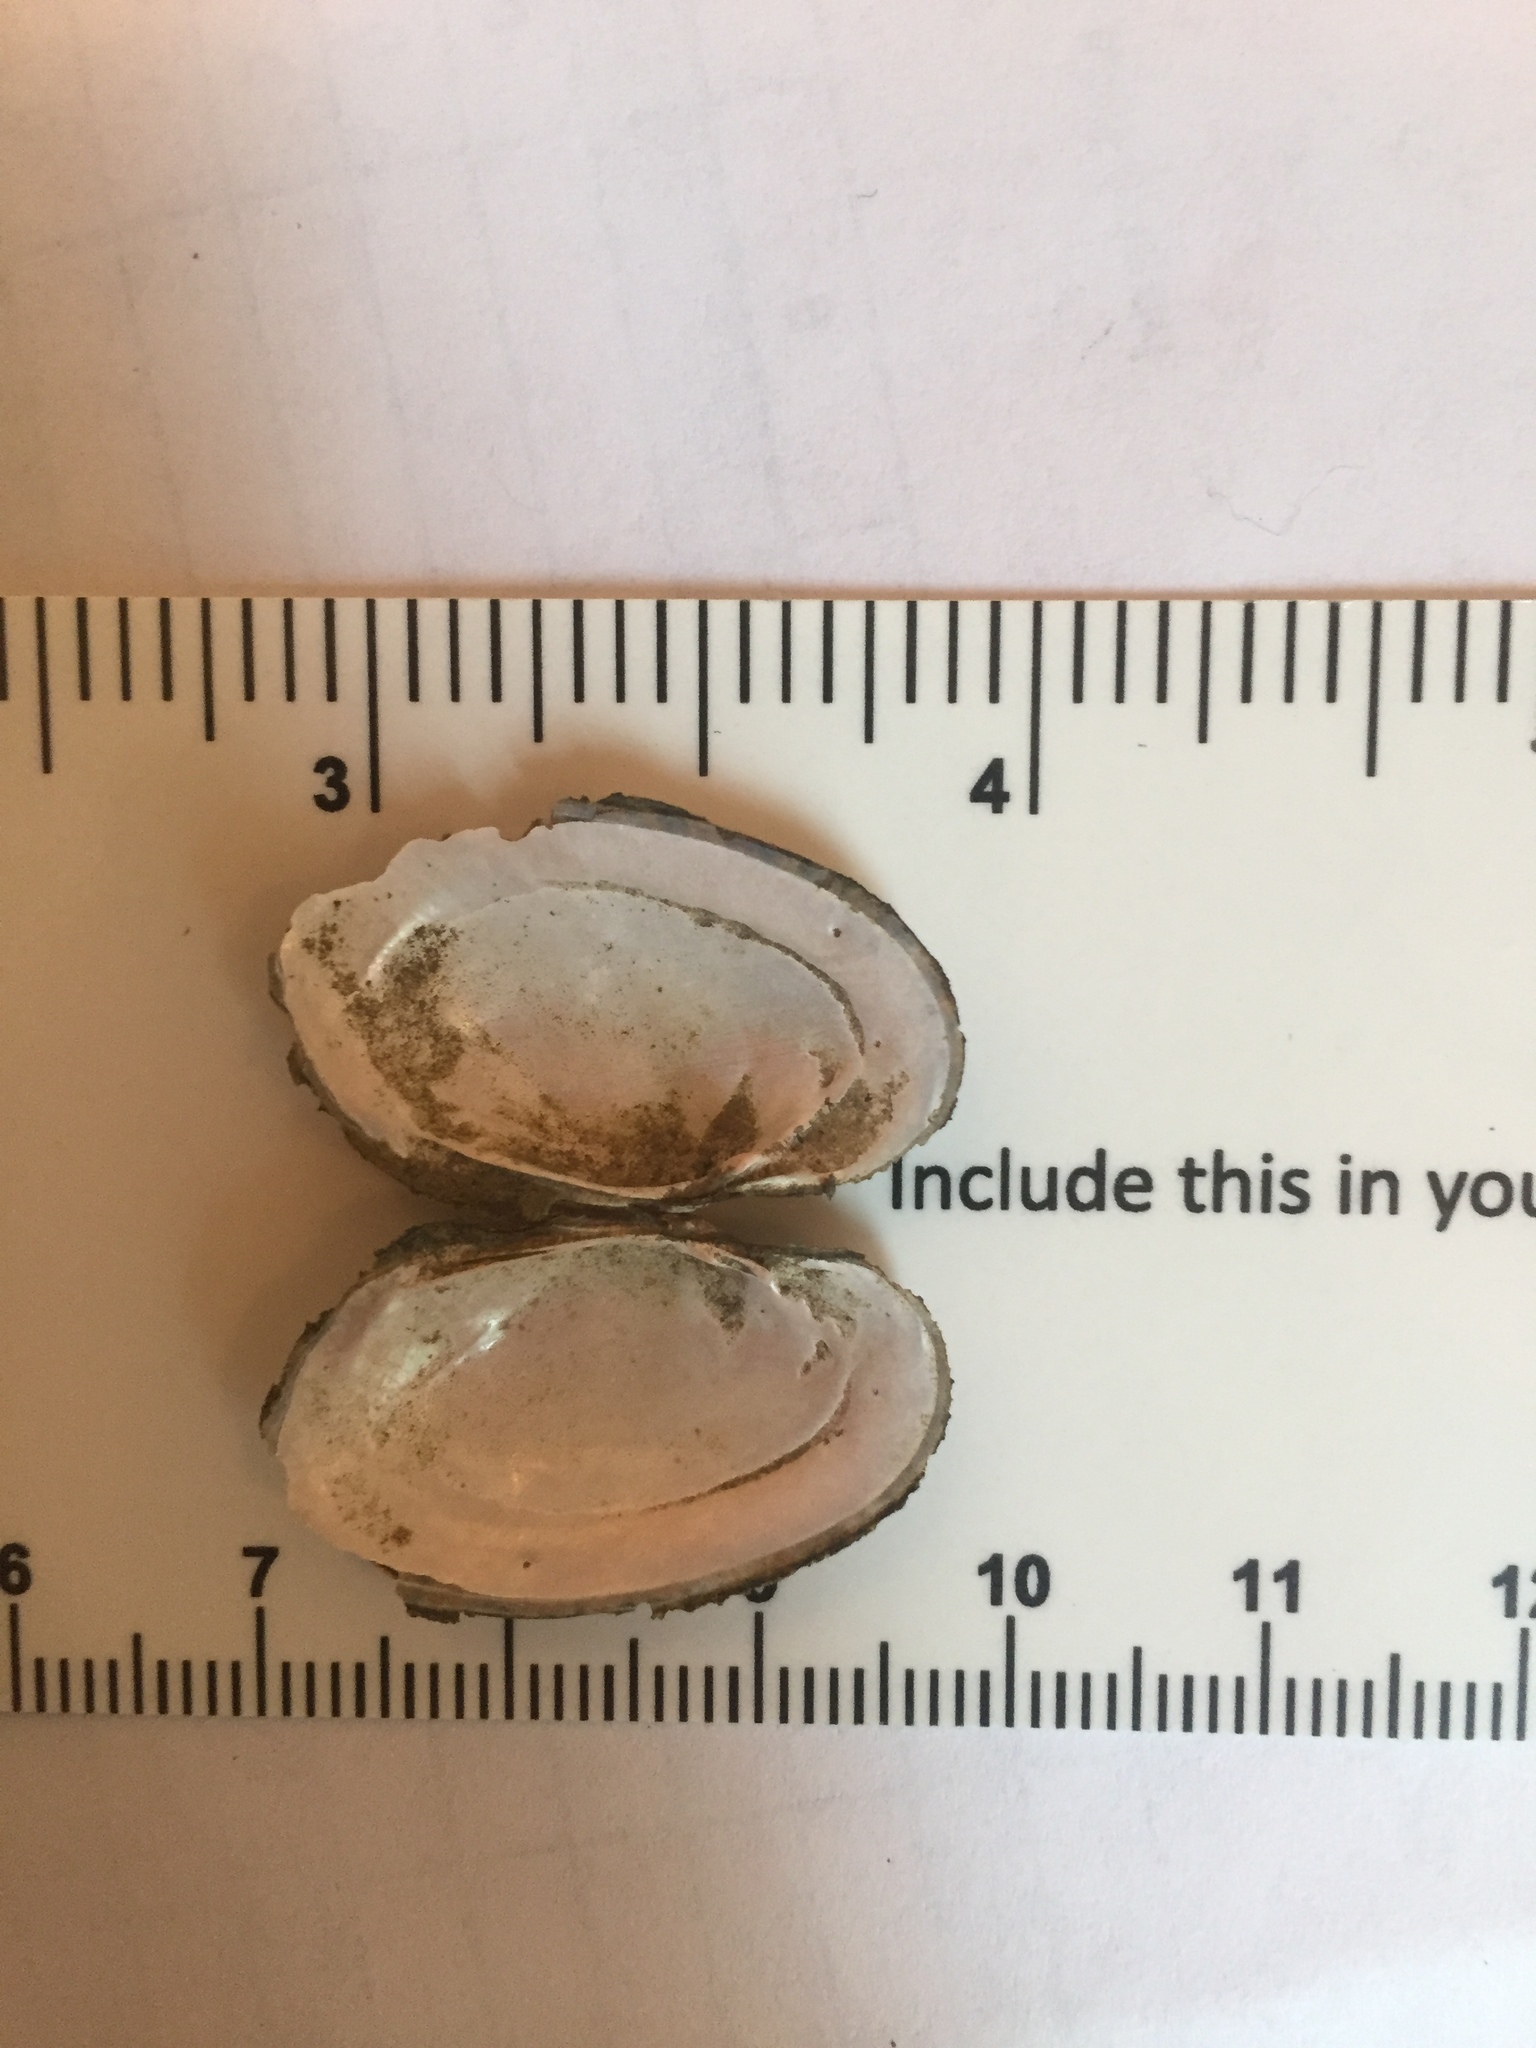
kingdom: Animalia
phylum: Mollusca
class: Bivalvia
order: Unionida
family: Unionidae
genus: Lampsilis
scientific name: Lampsilis radiata
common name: Eastern lampmussel
